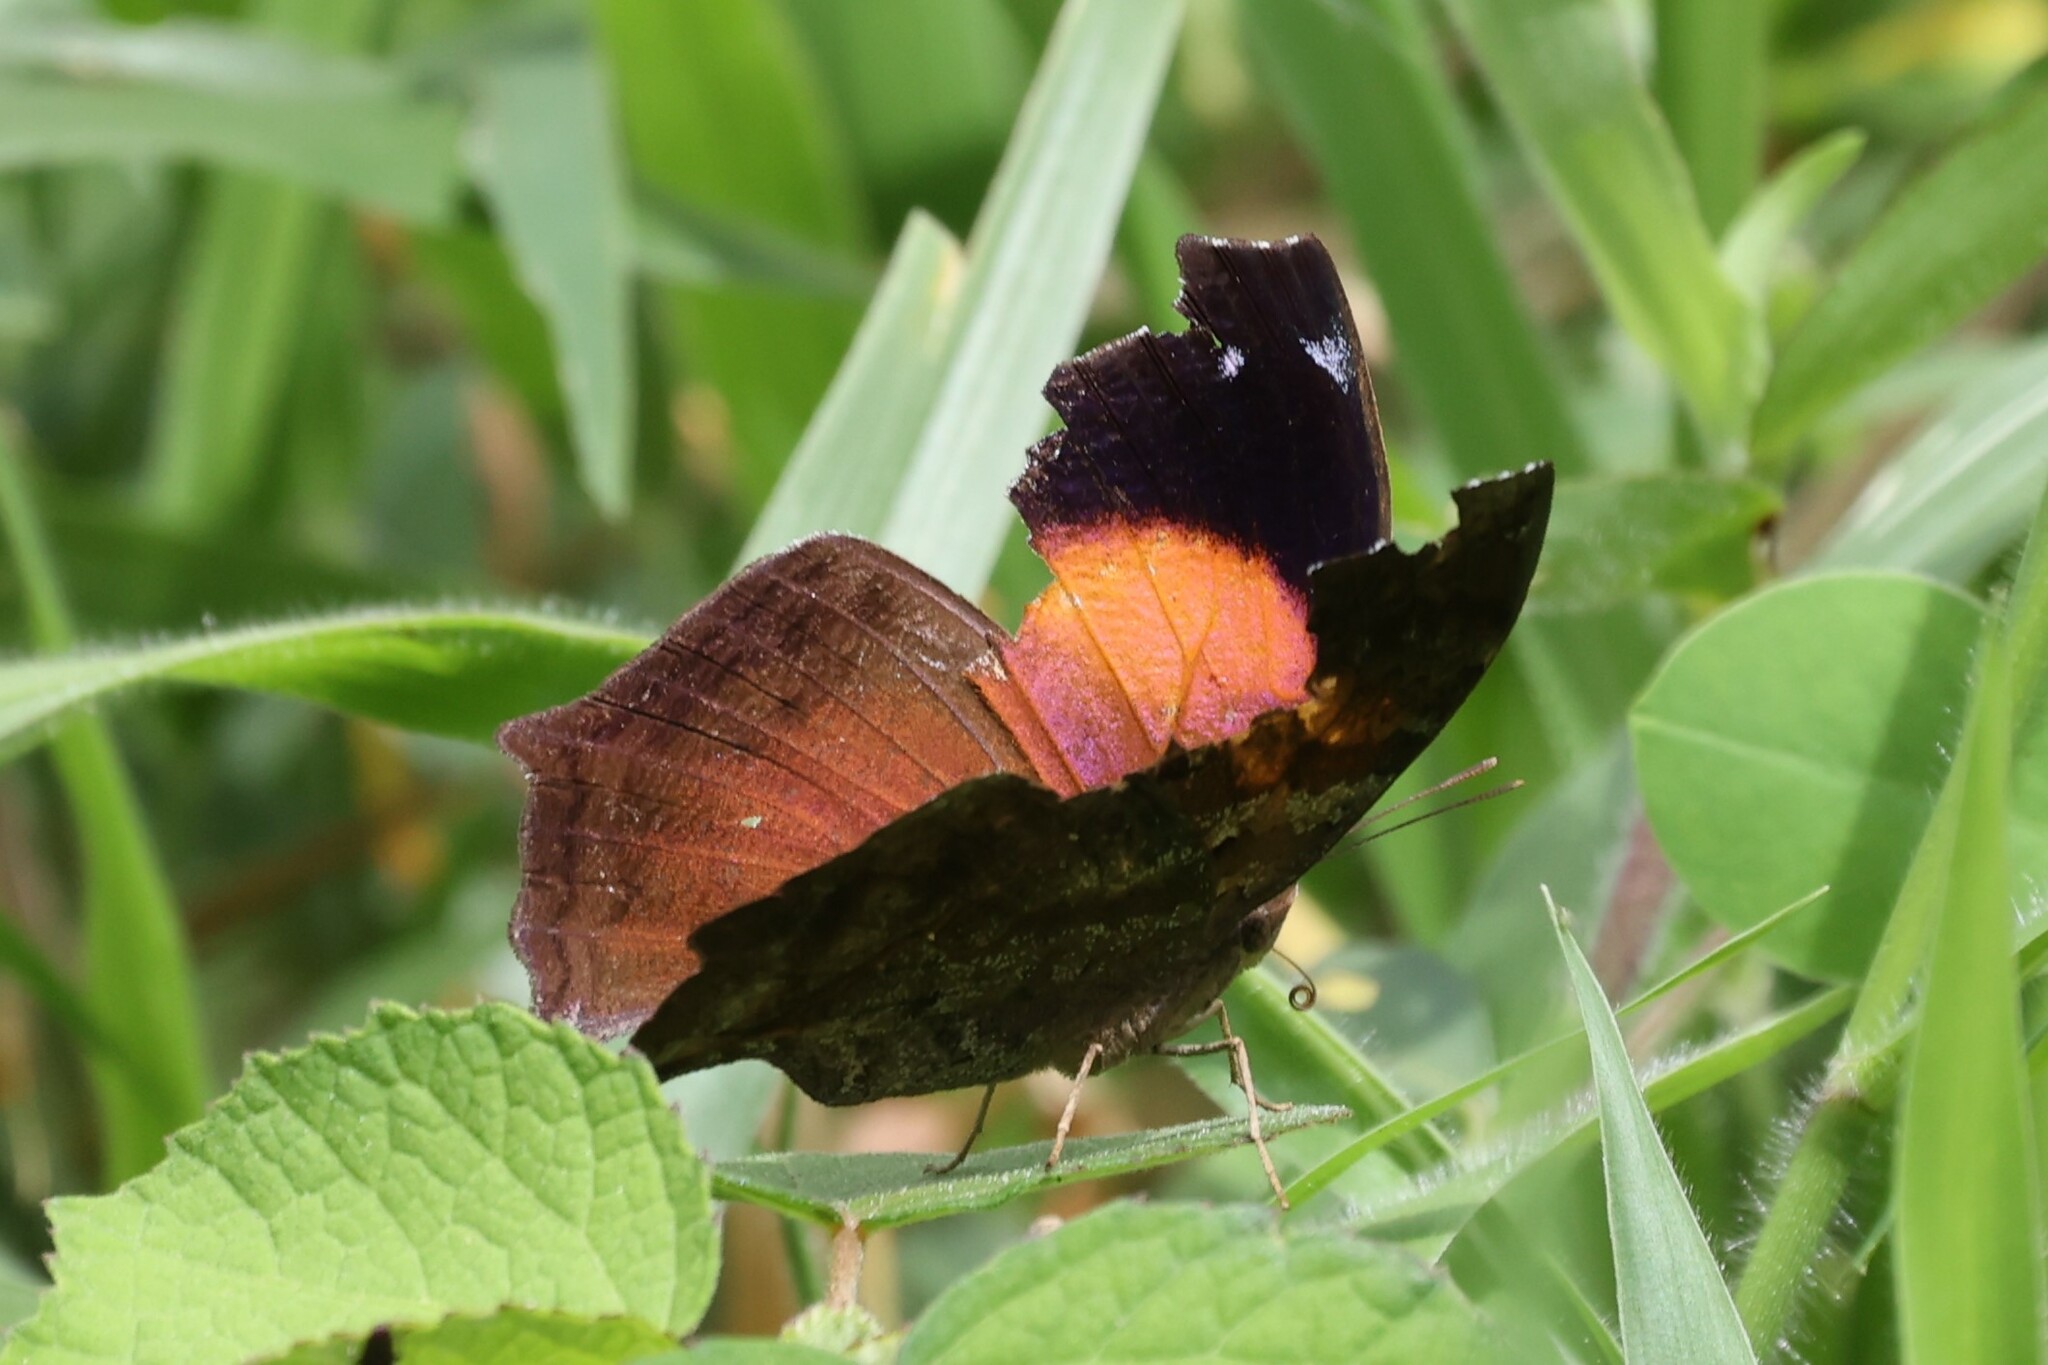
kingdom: Animalia
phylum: Arthropoda
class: Insecta
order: Lepidoptera
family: Nymphalidae
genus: Salamis
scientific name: Salamis cacta
